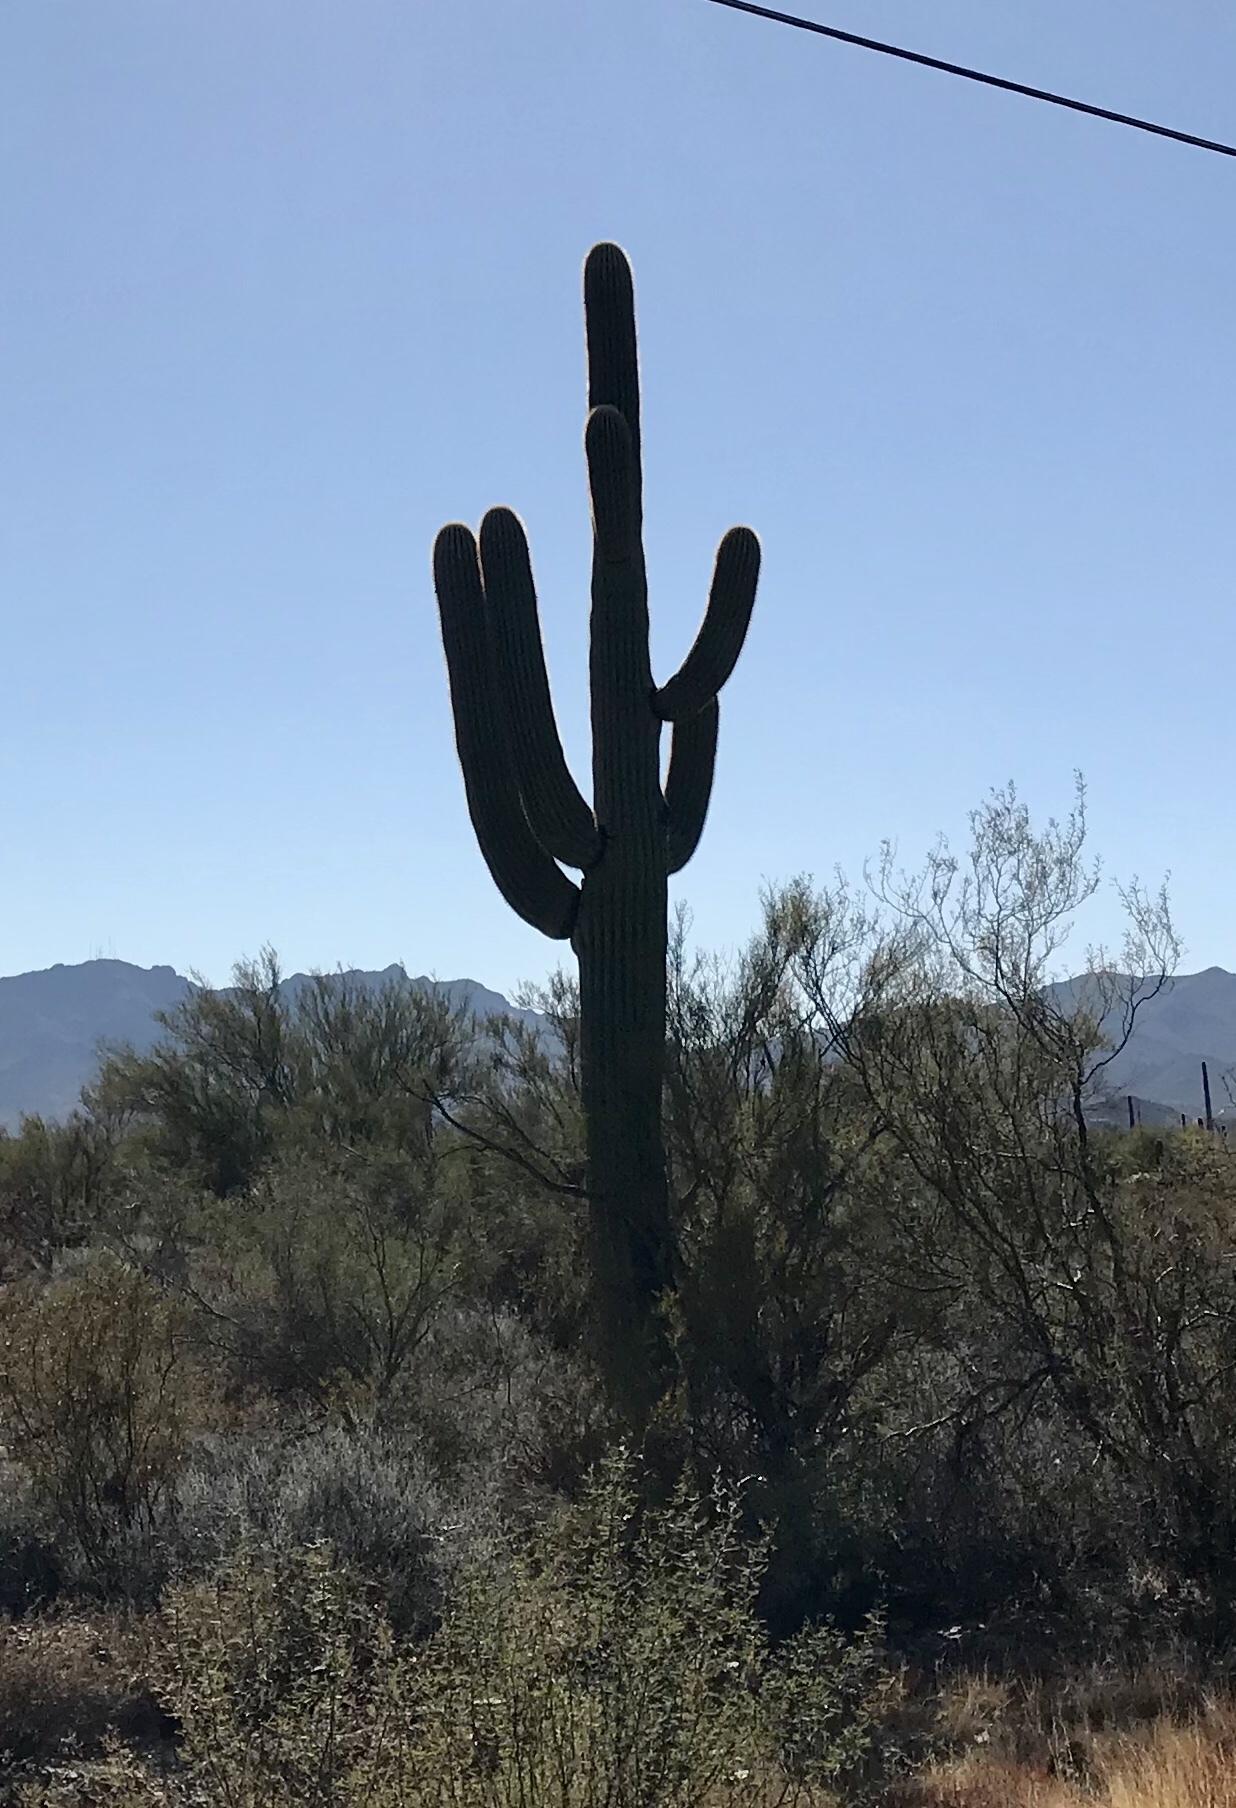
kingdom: Plantae
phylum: Tracheophyta
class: Magnoliopsida
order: Caryophyllales
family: Cactaceae
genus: Carnegiea
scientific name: Carnegiea gigantea
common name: Saguaro
